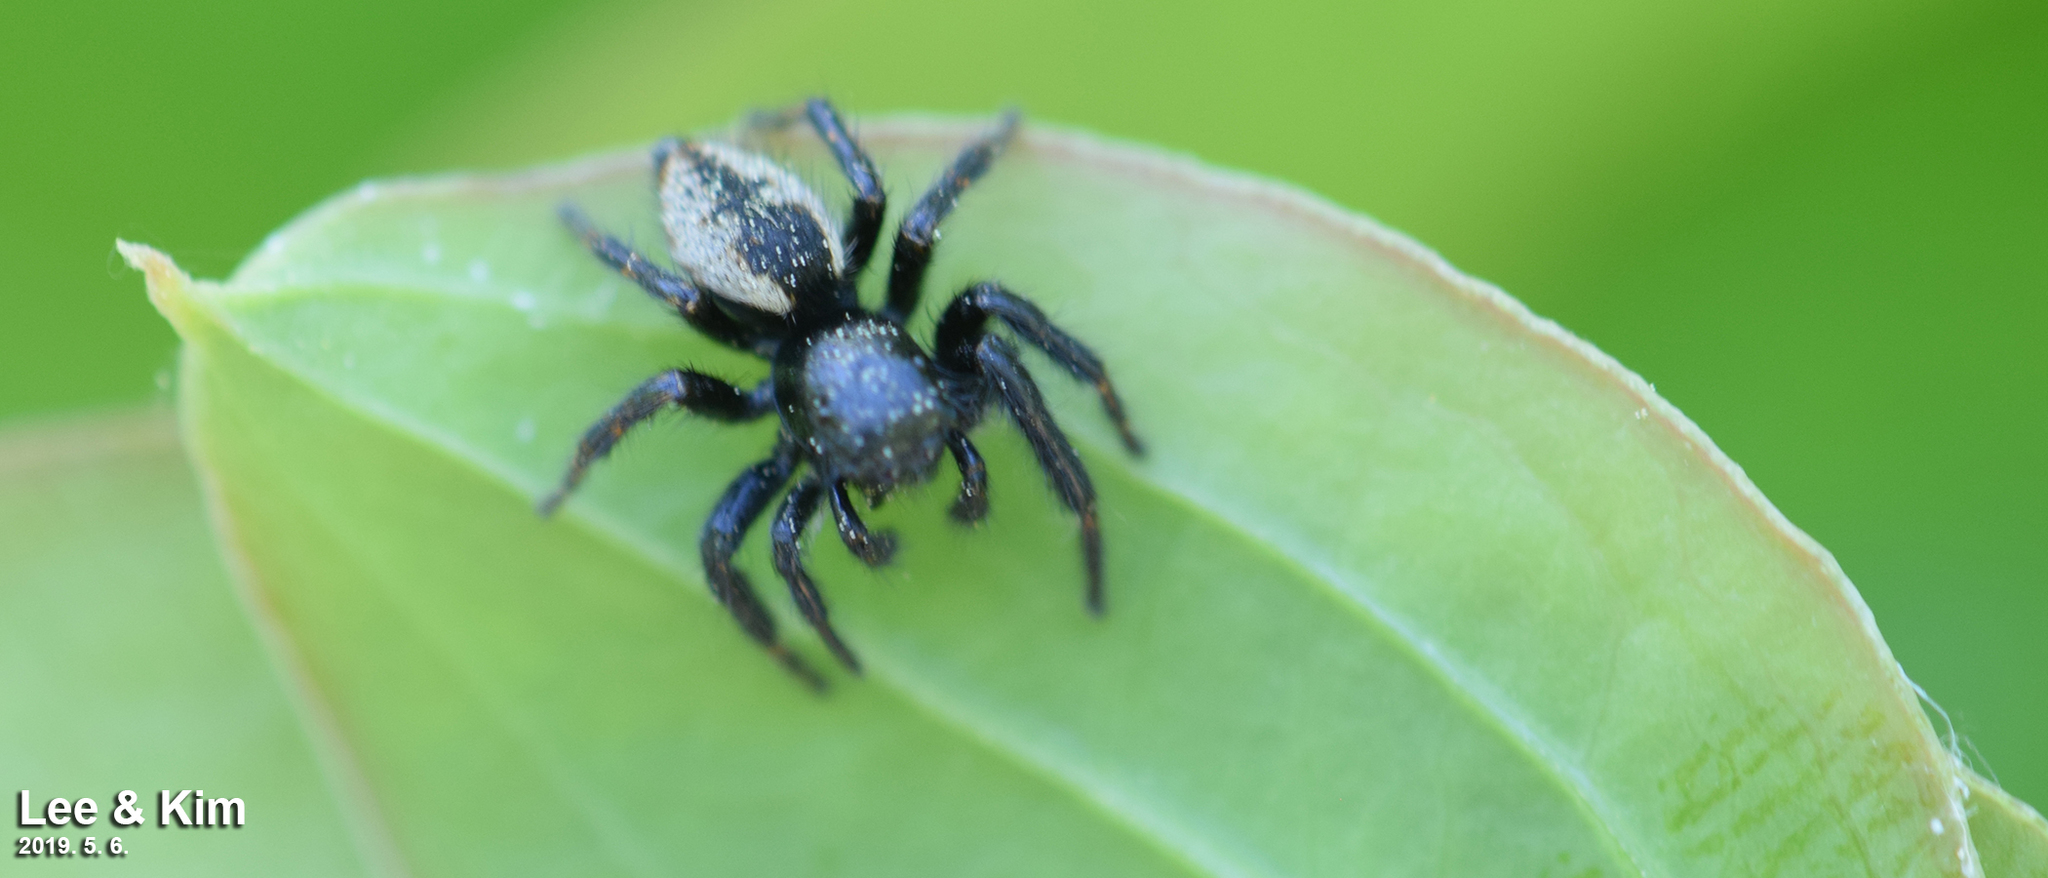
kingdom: Animalia
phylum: Arthropoda
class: Arachnida
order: Araneae
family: Salticidae
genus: Carrhotus
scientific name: Carrhotus xanthogramma
